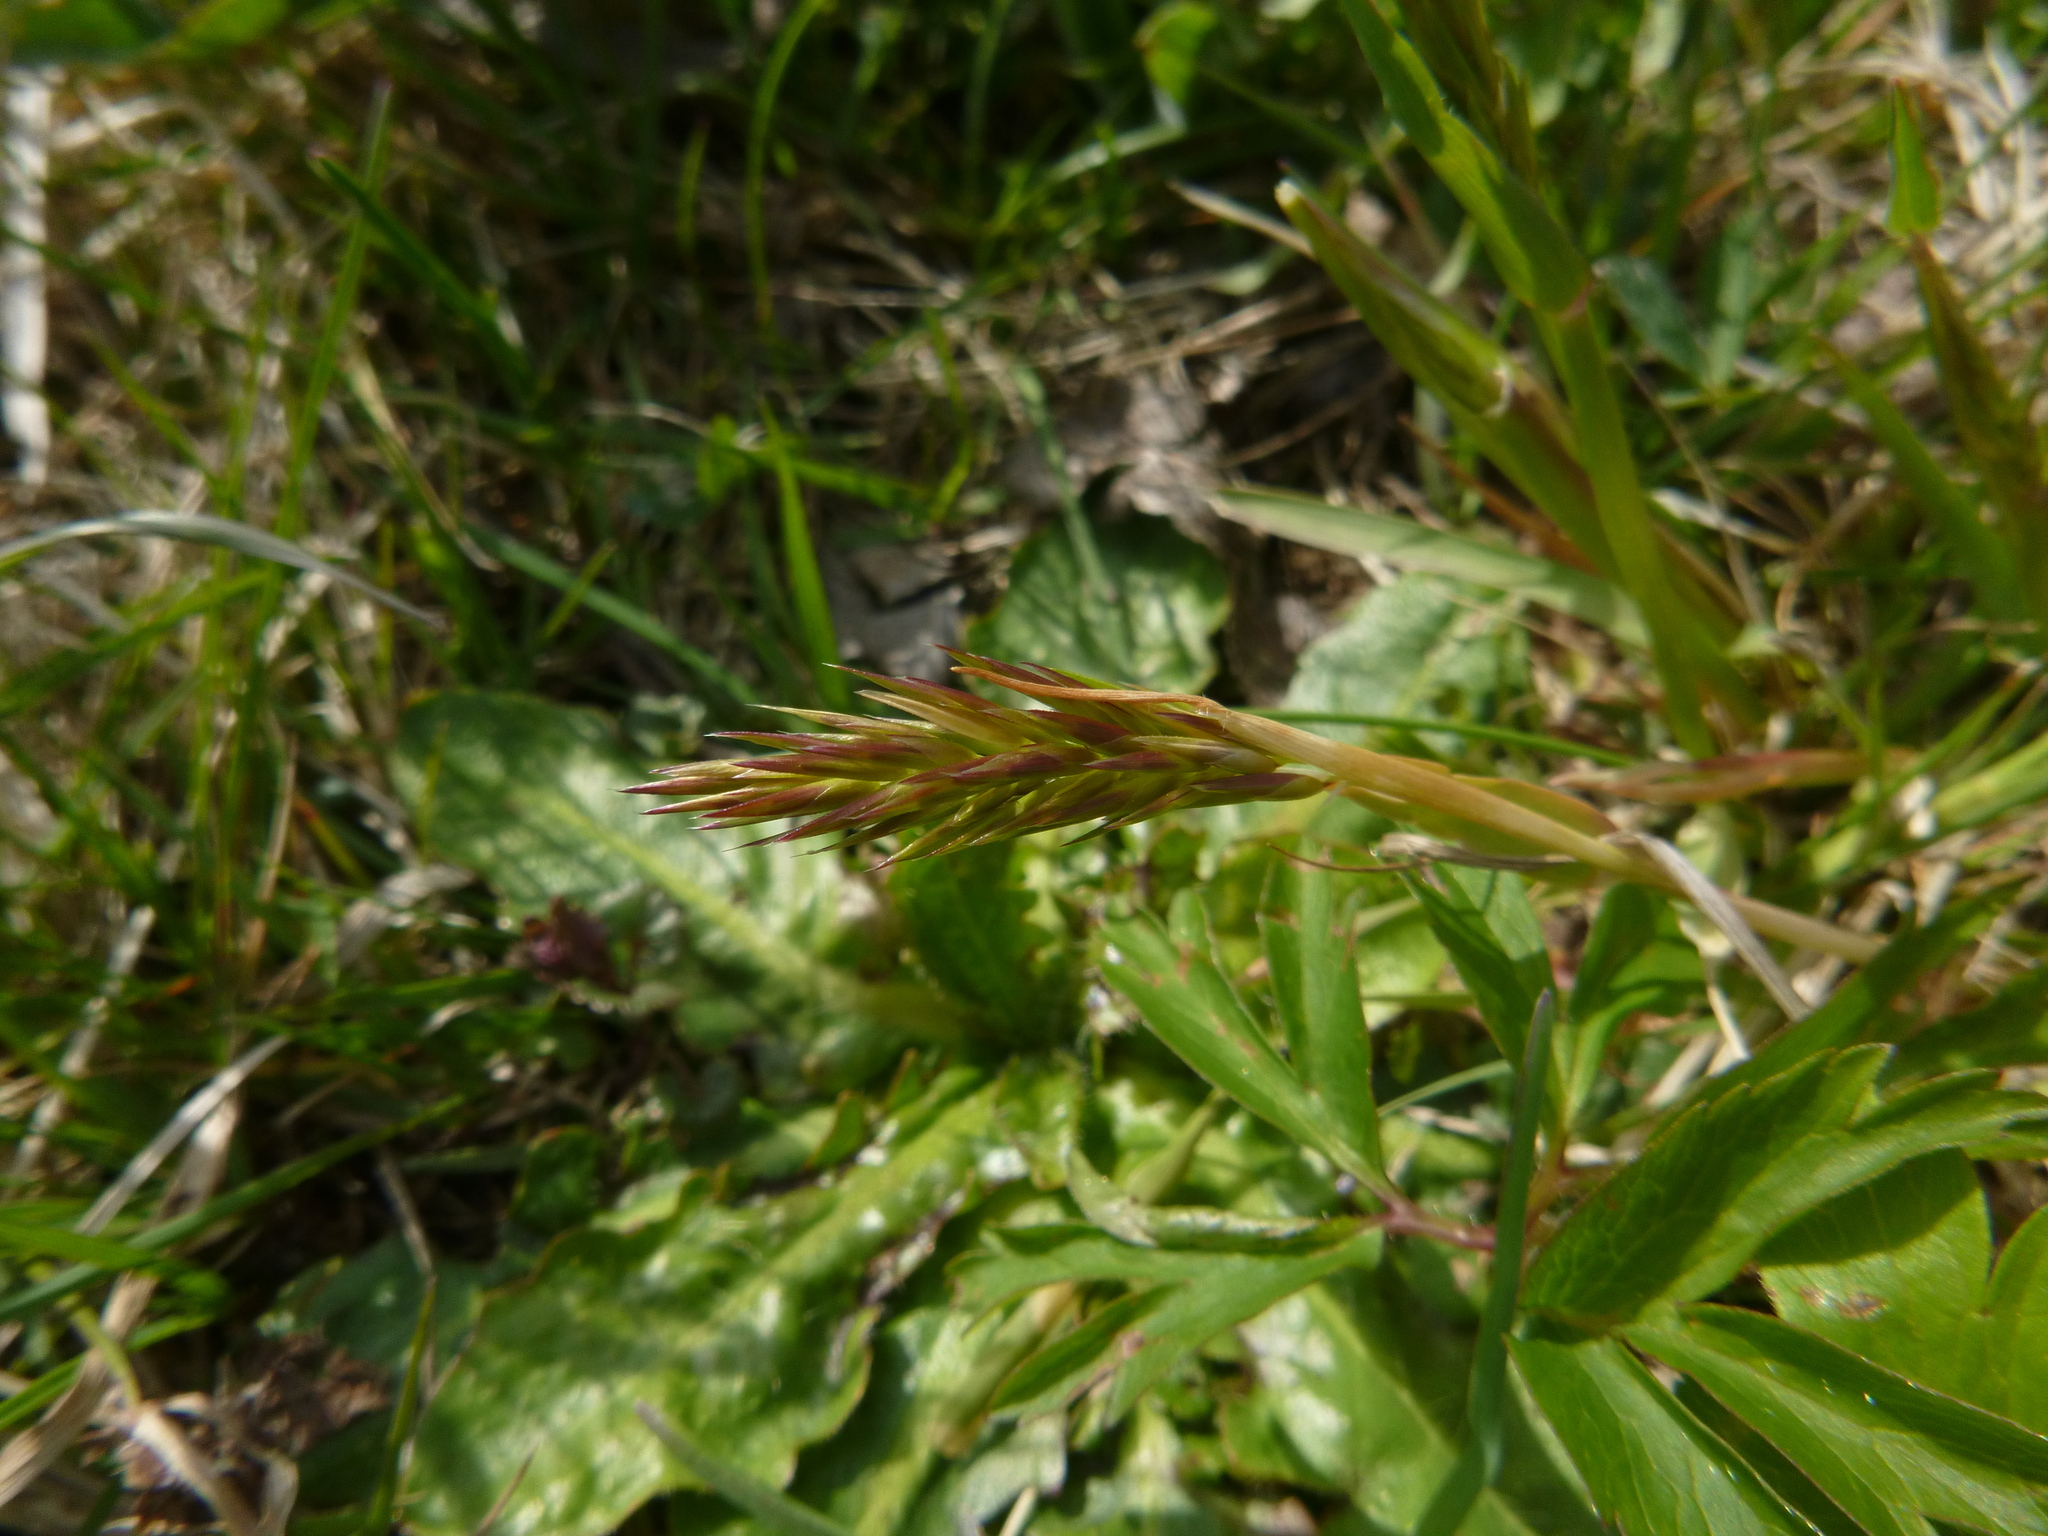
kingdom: Plantae
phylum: Tracheophyta
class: Liliopsida
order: Poales
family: Poaceae
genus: Anthoxanthum
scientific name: Anthoxanthum odoratum
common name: Sweet vernalgrass
